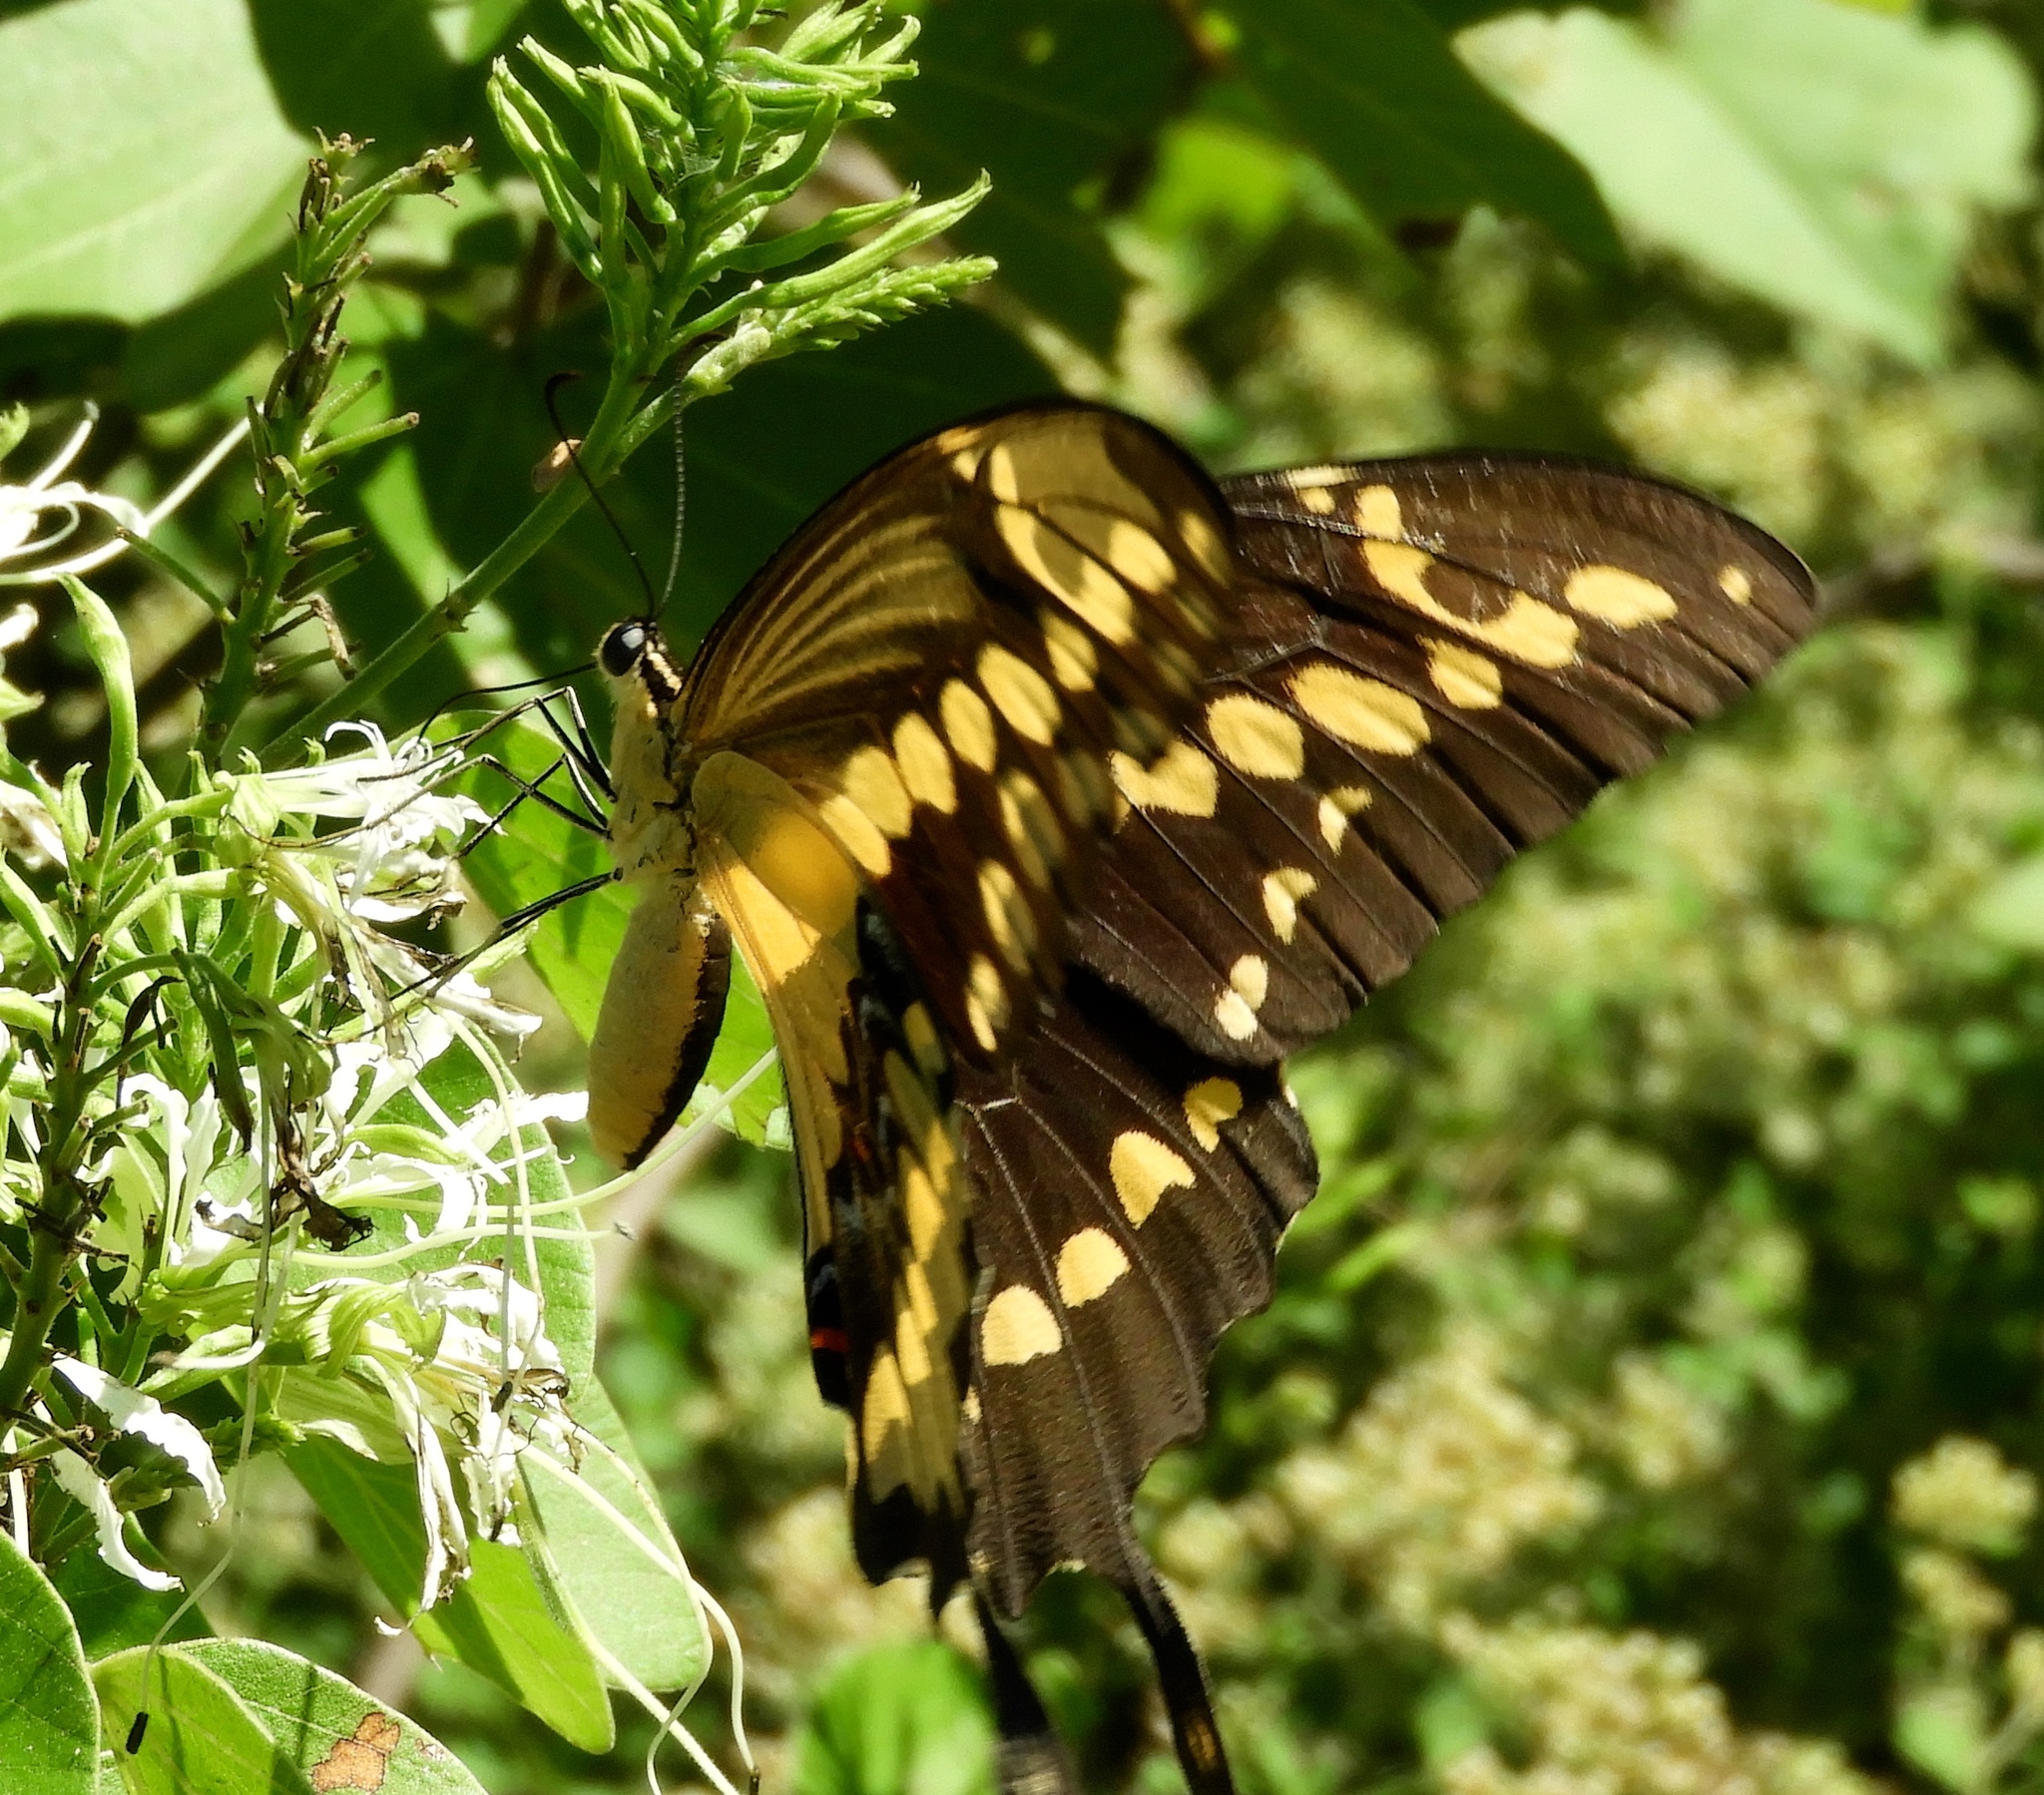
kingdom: Animalia
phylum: Arthropoda
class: Insecta
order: Lepidoptera
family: Papilionidae
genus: Papilio
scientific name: Papilio rumiko
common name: Western giant swallowtail
